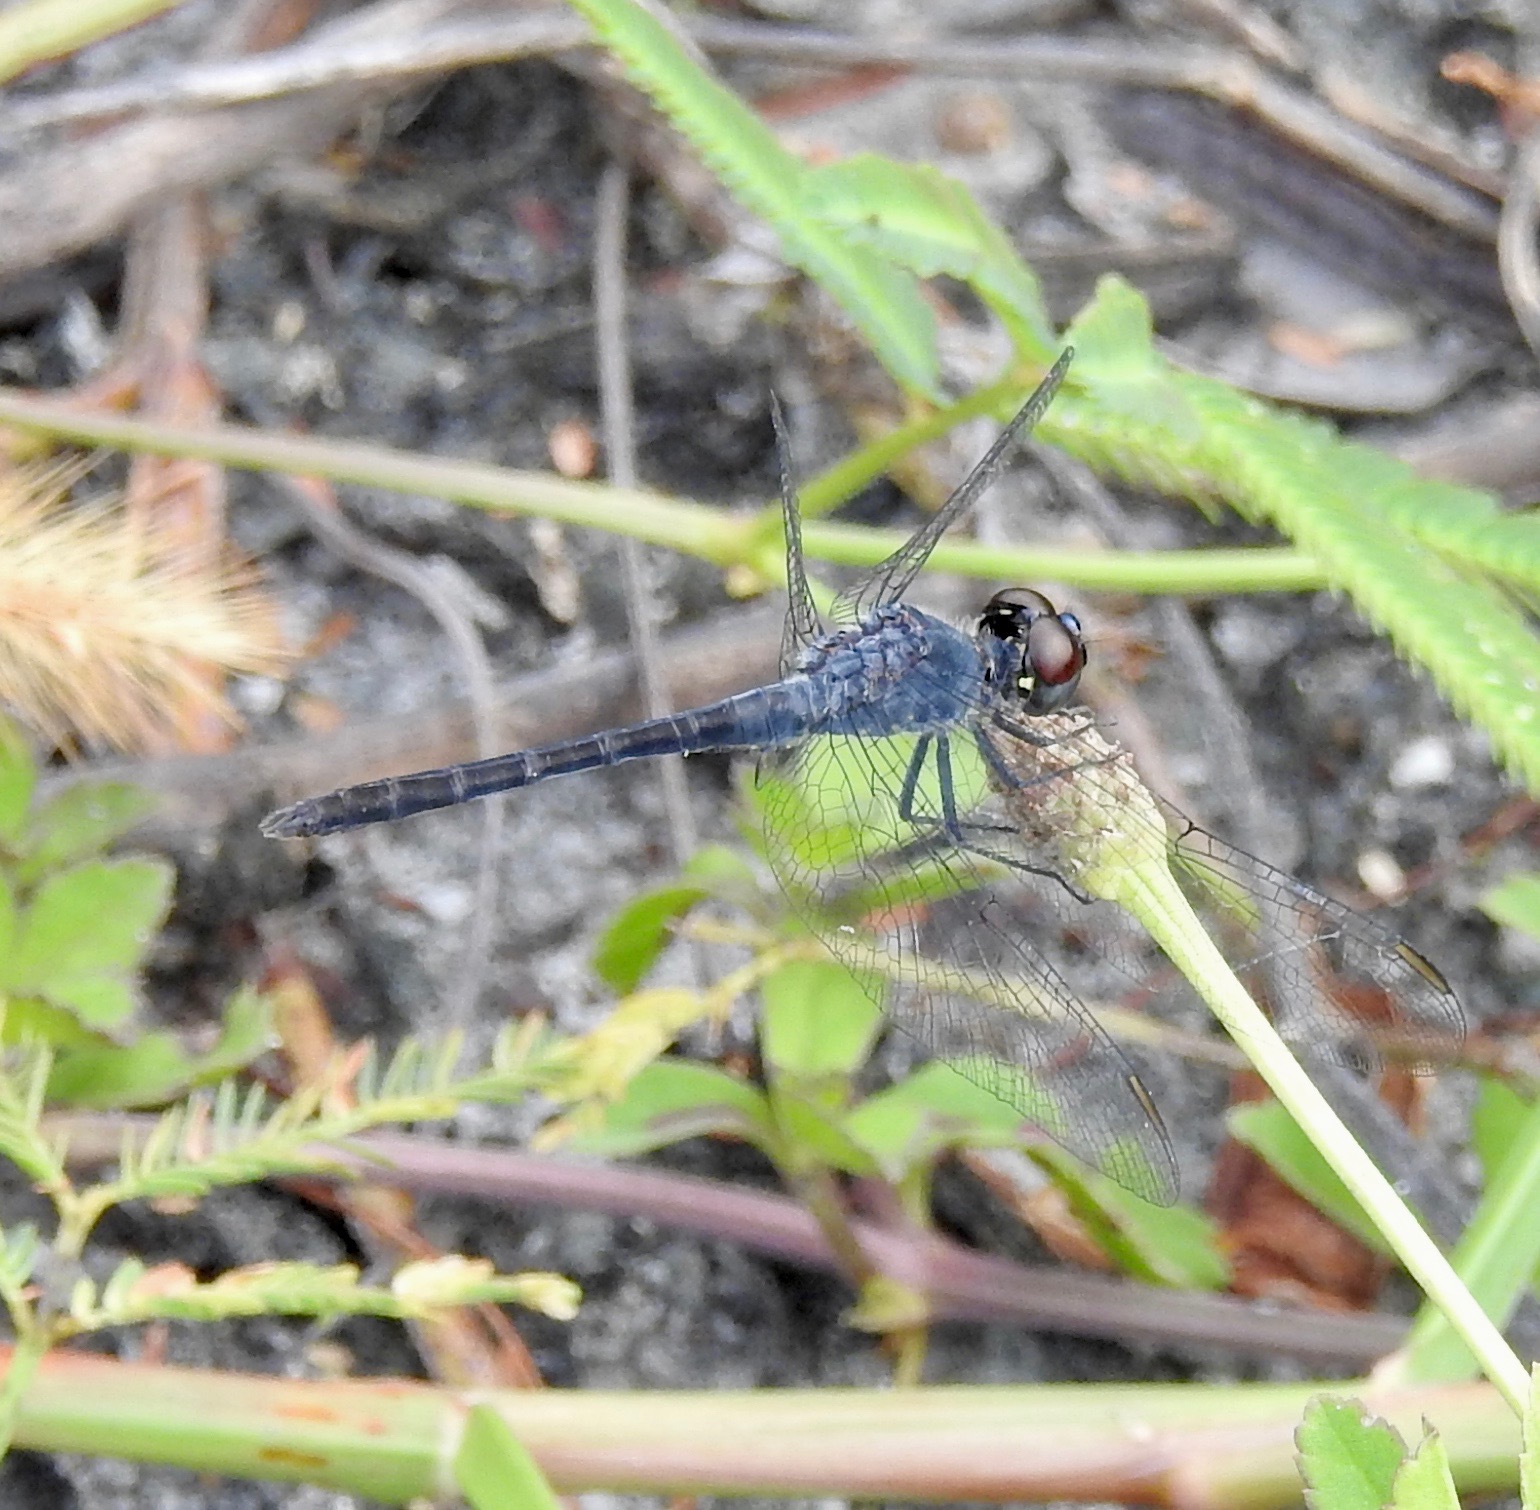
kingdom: Animalia
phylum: Arthropoda
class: Insecta
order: Odonata
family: Libellulidae
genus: Erythrodiplax
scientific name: Erythrodiplax berenice
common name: Seaside dragonlet
